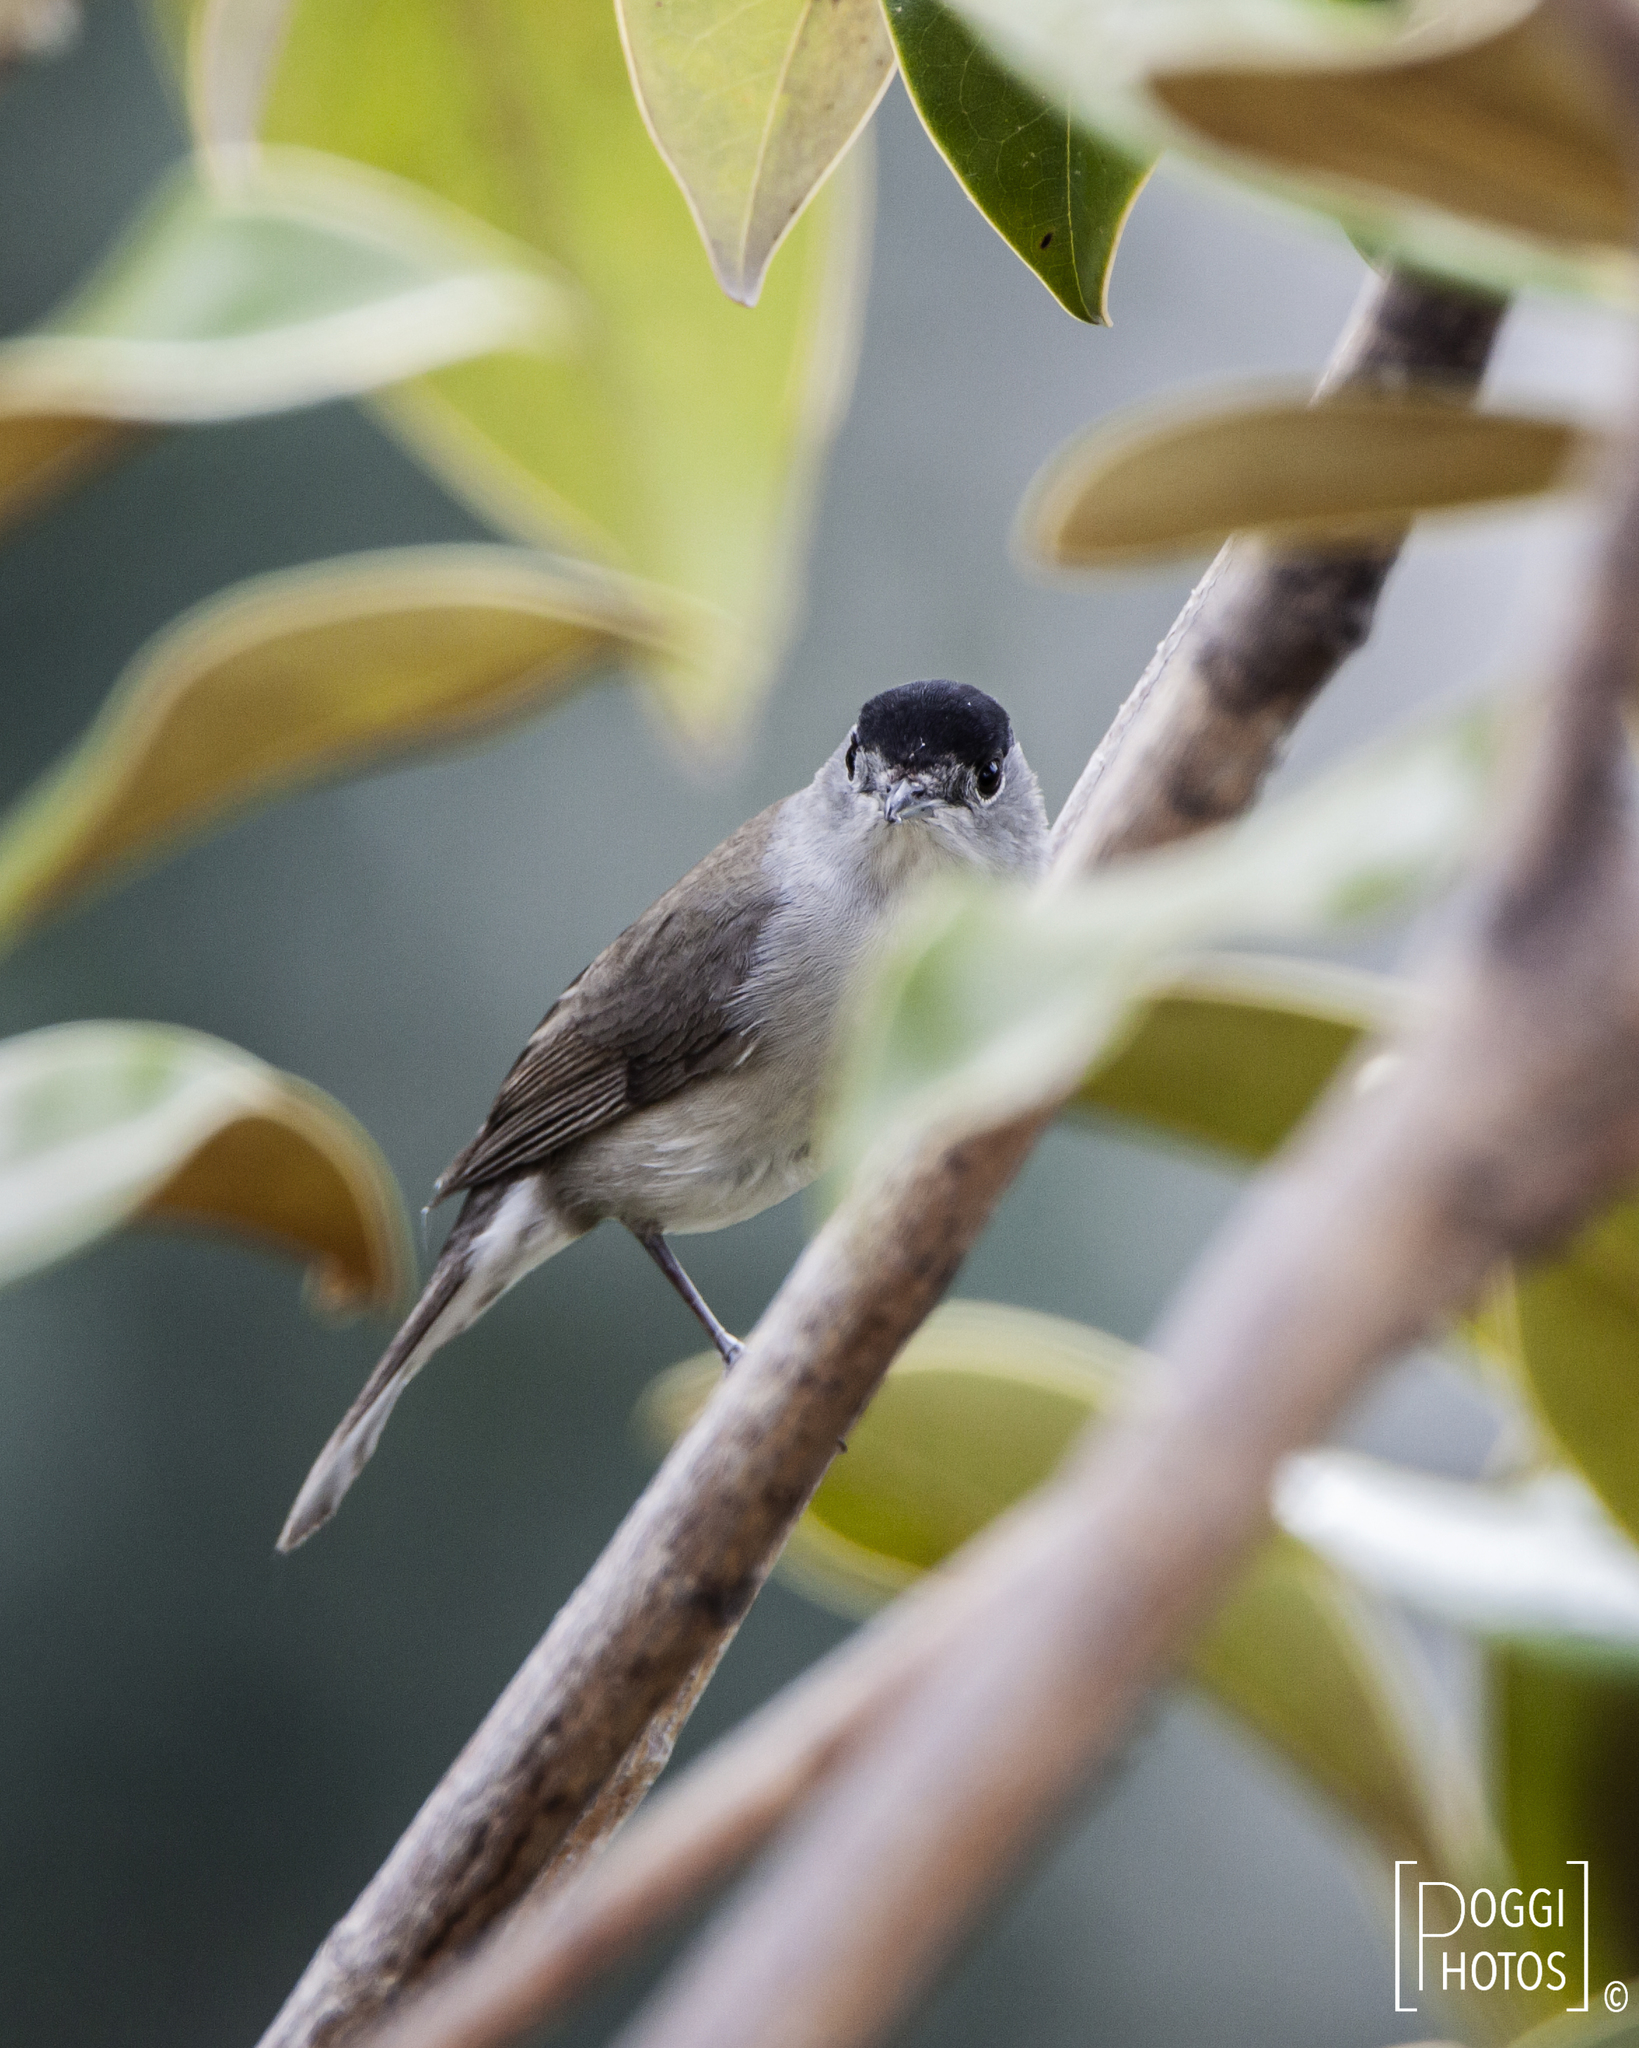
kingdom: Animalia
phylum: Chordata
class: Aves
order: Passeriformes
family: Sylviidae
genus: Sylvia
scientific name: Sylvia atricapilla
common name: Eurasian blackcap
